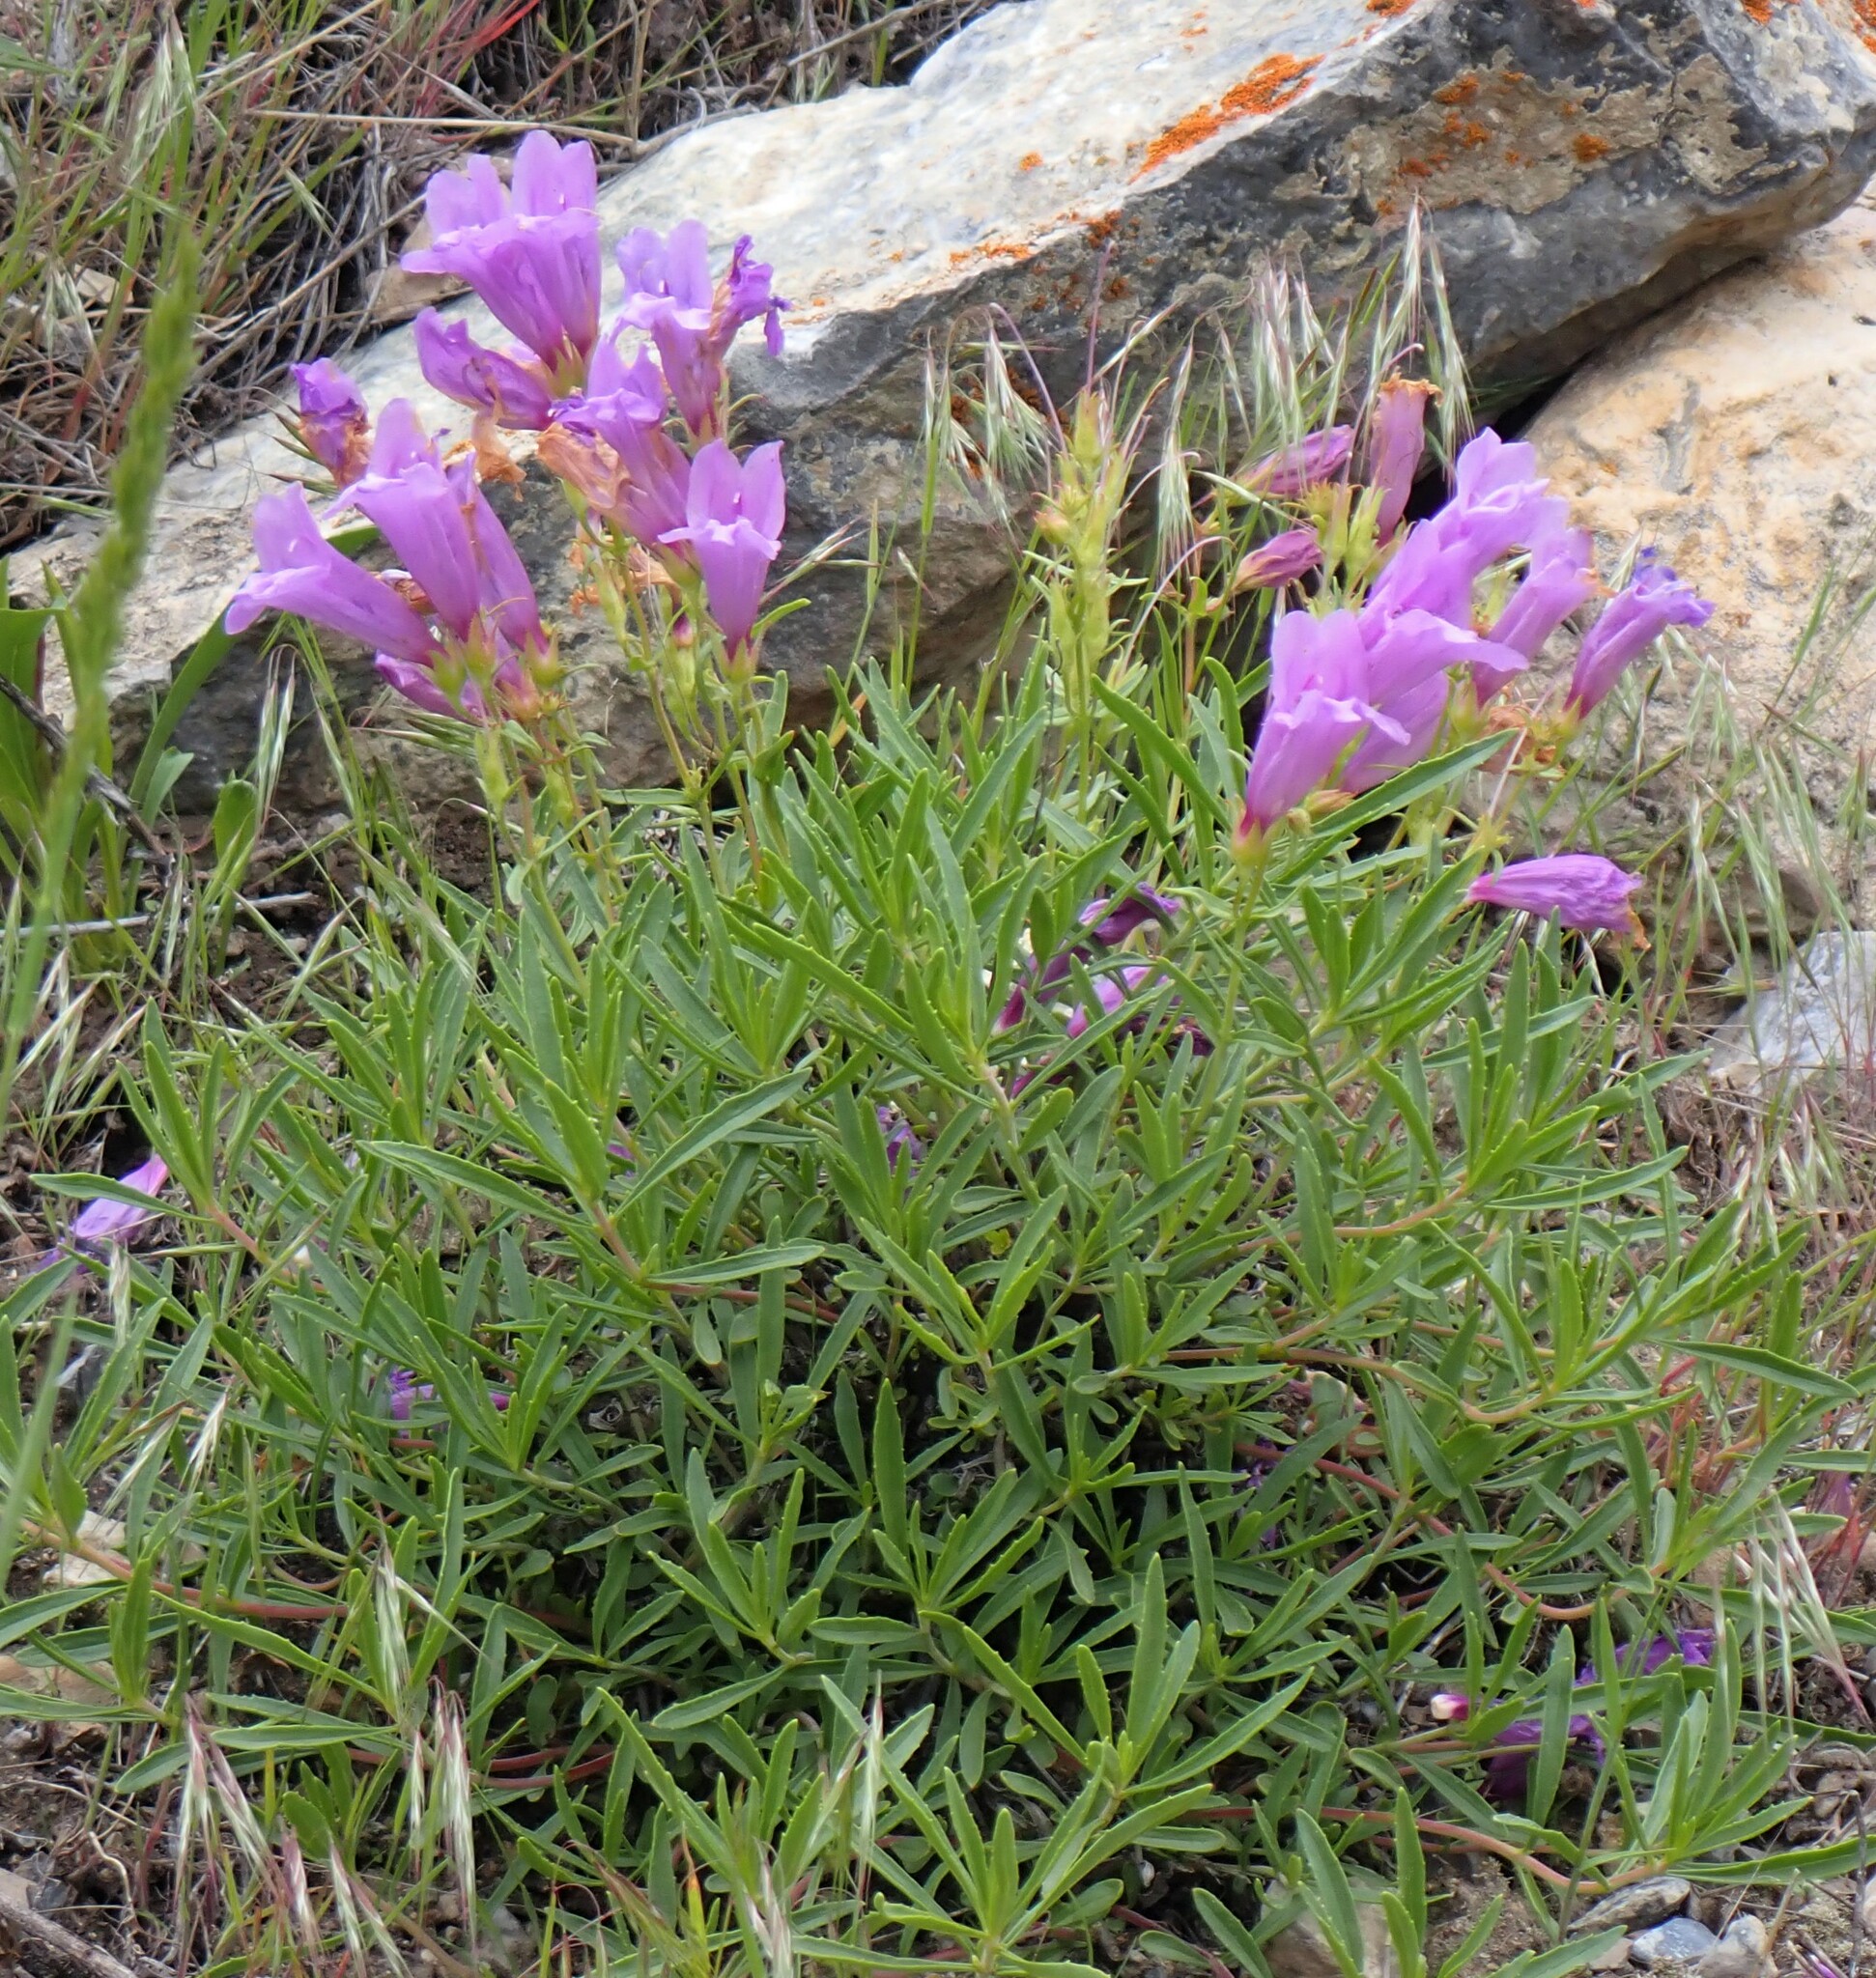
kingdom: Plantae
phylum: Tracheophyta
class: Magnoliopsida
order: Lamiales
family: Plantaginaceae
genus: Penstemon
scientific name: Penstemon fruticosus
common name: Bush penstemon
